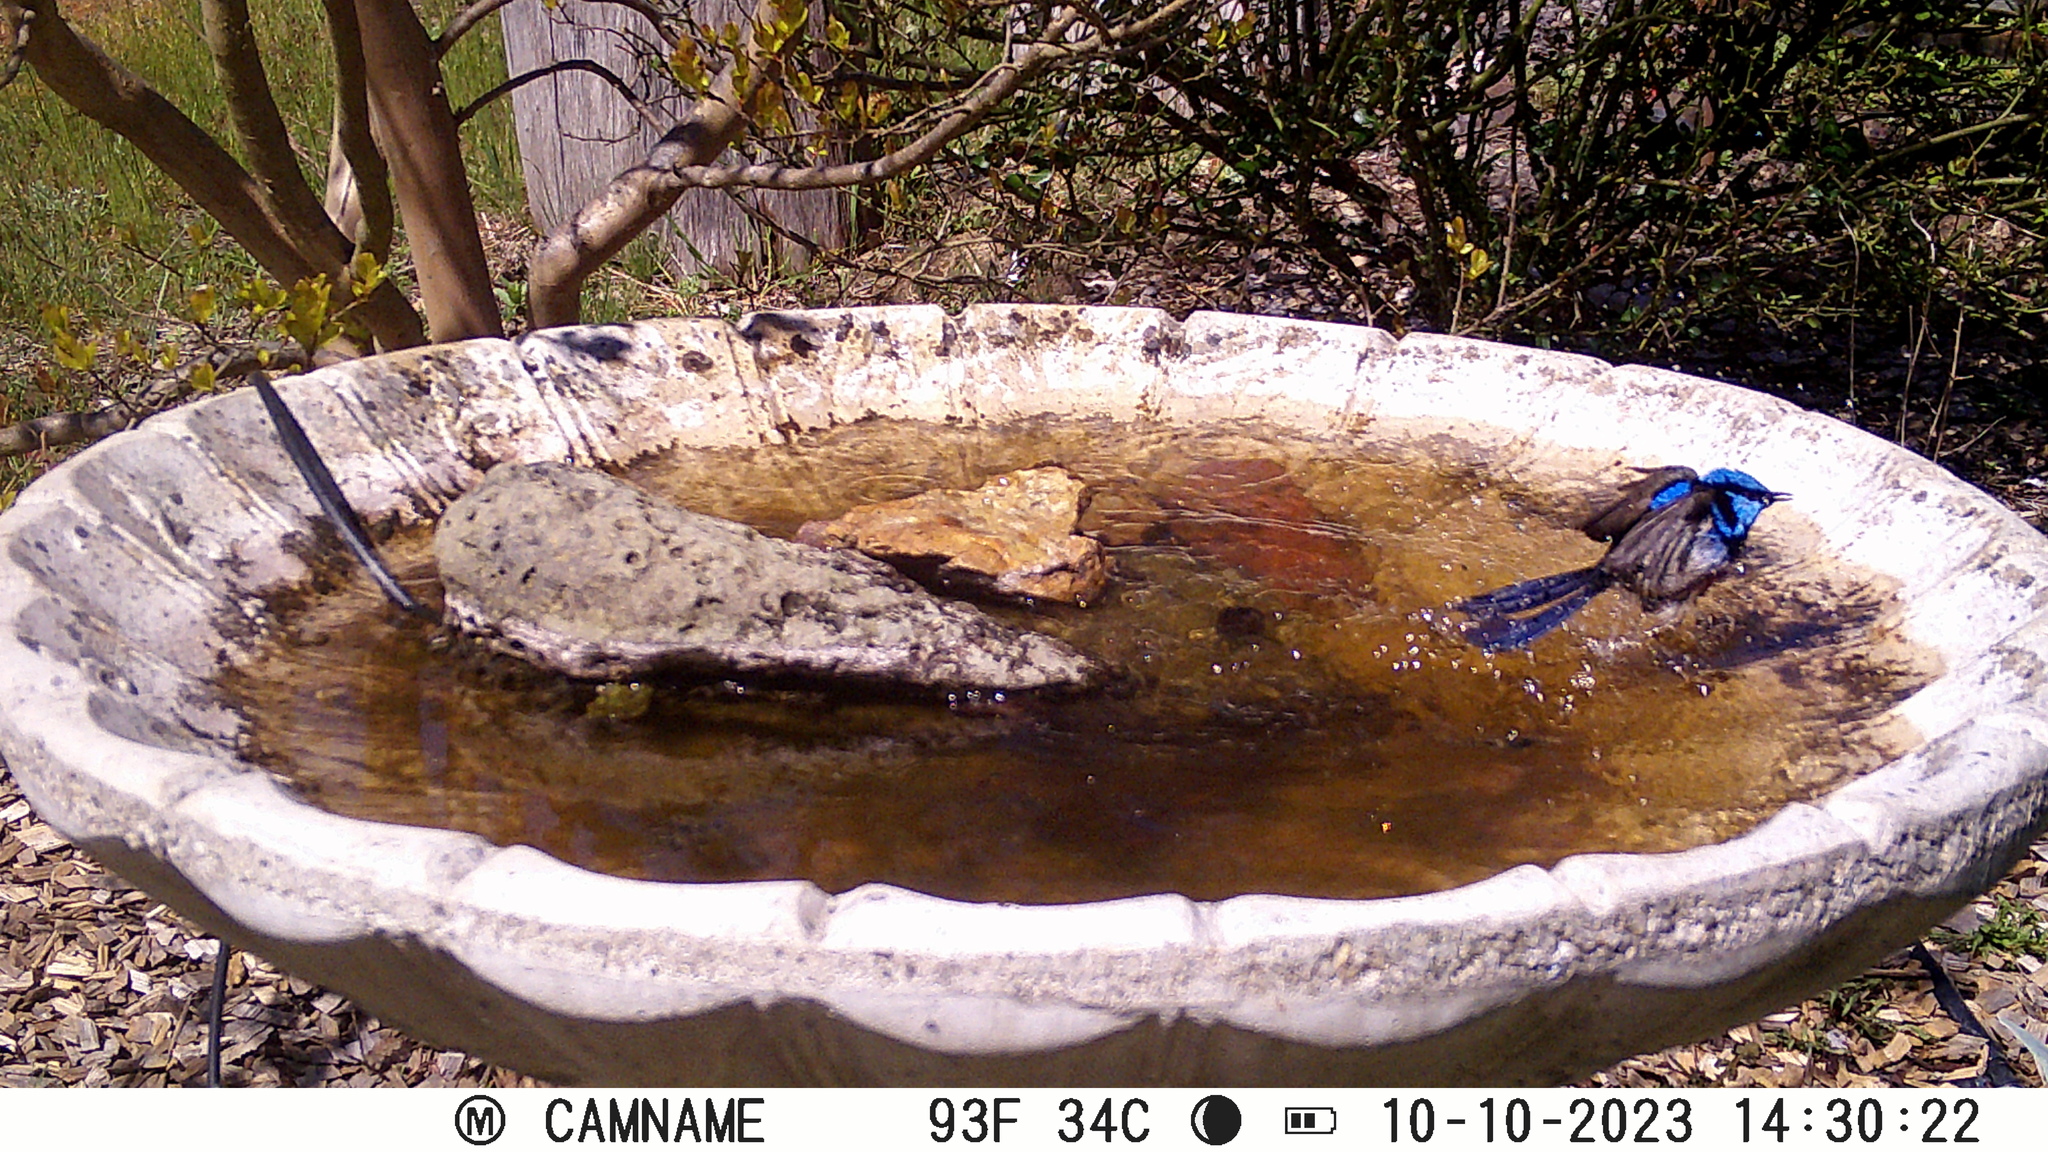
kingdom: Animalia
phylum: Chordata
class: Aves
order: Passeriformes
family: Maluridae
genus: Malurus
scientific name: Malurus cyaneus
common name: Superb fairywren
